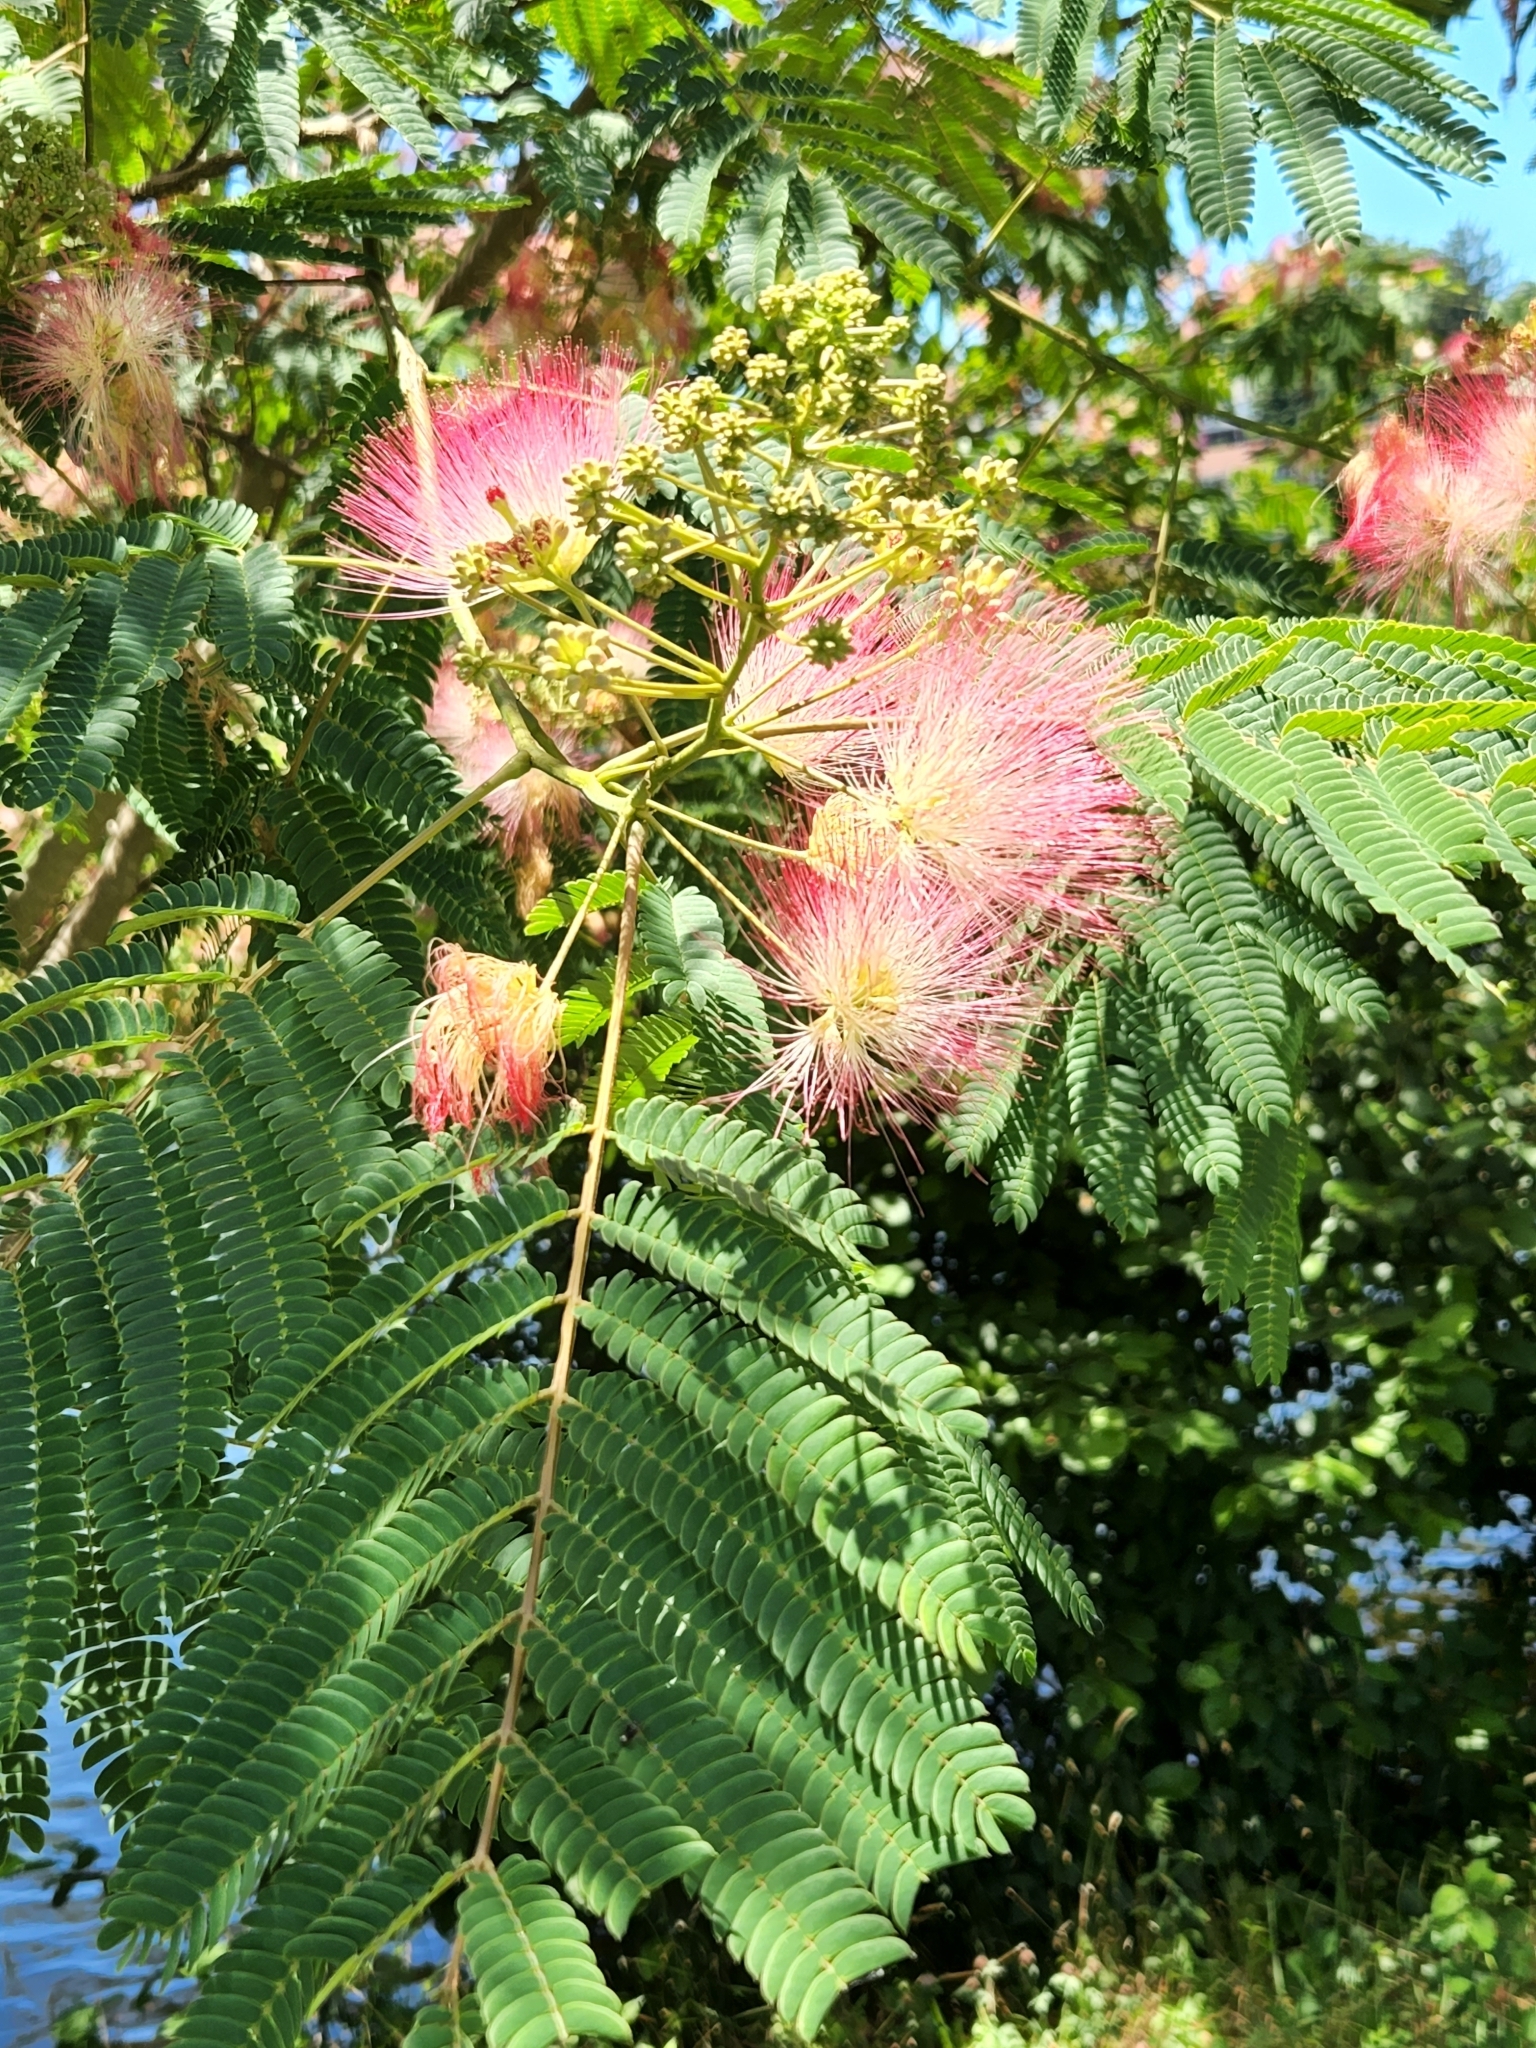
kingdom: Plantae
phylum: Tracheophyta
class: Magnoliopsida
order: Fabales
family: Fabaceae
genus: Albizia
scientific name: Albizia julibrissin
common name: Silktree
